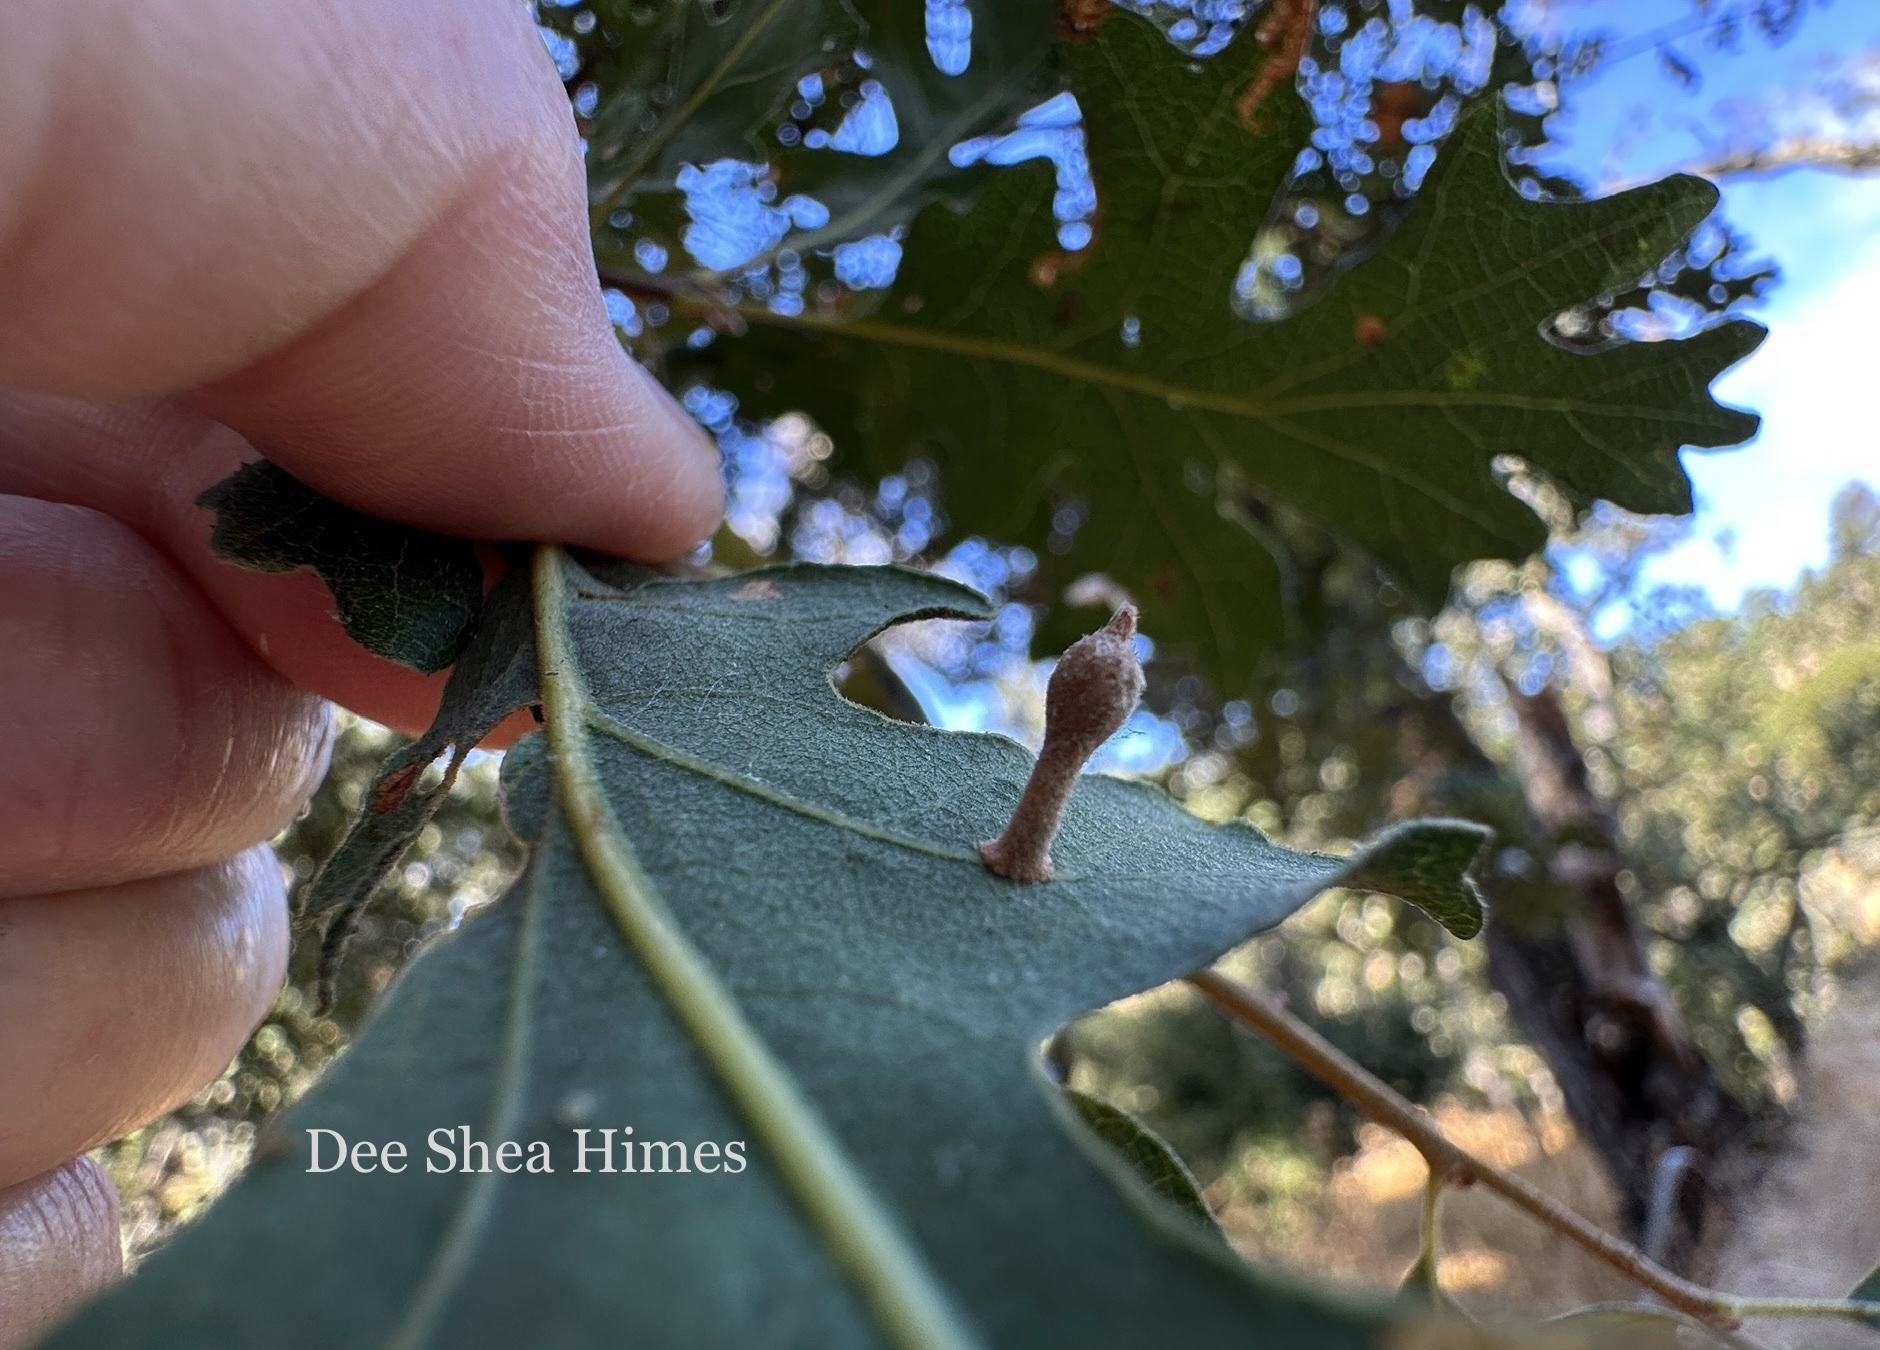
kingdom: Animalia
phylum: Arthropoda
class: Insecta
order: Hymenoptera
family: Cynipidae
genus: Atrusca
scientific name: Atrusca
